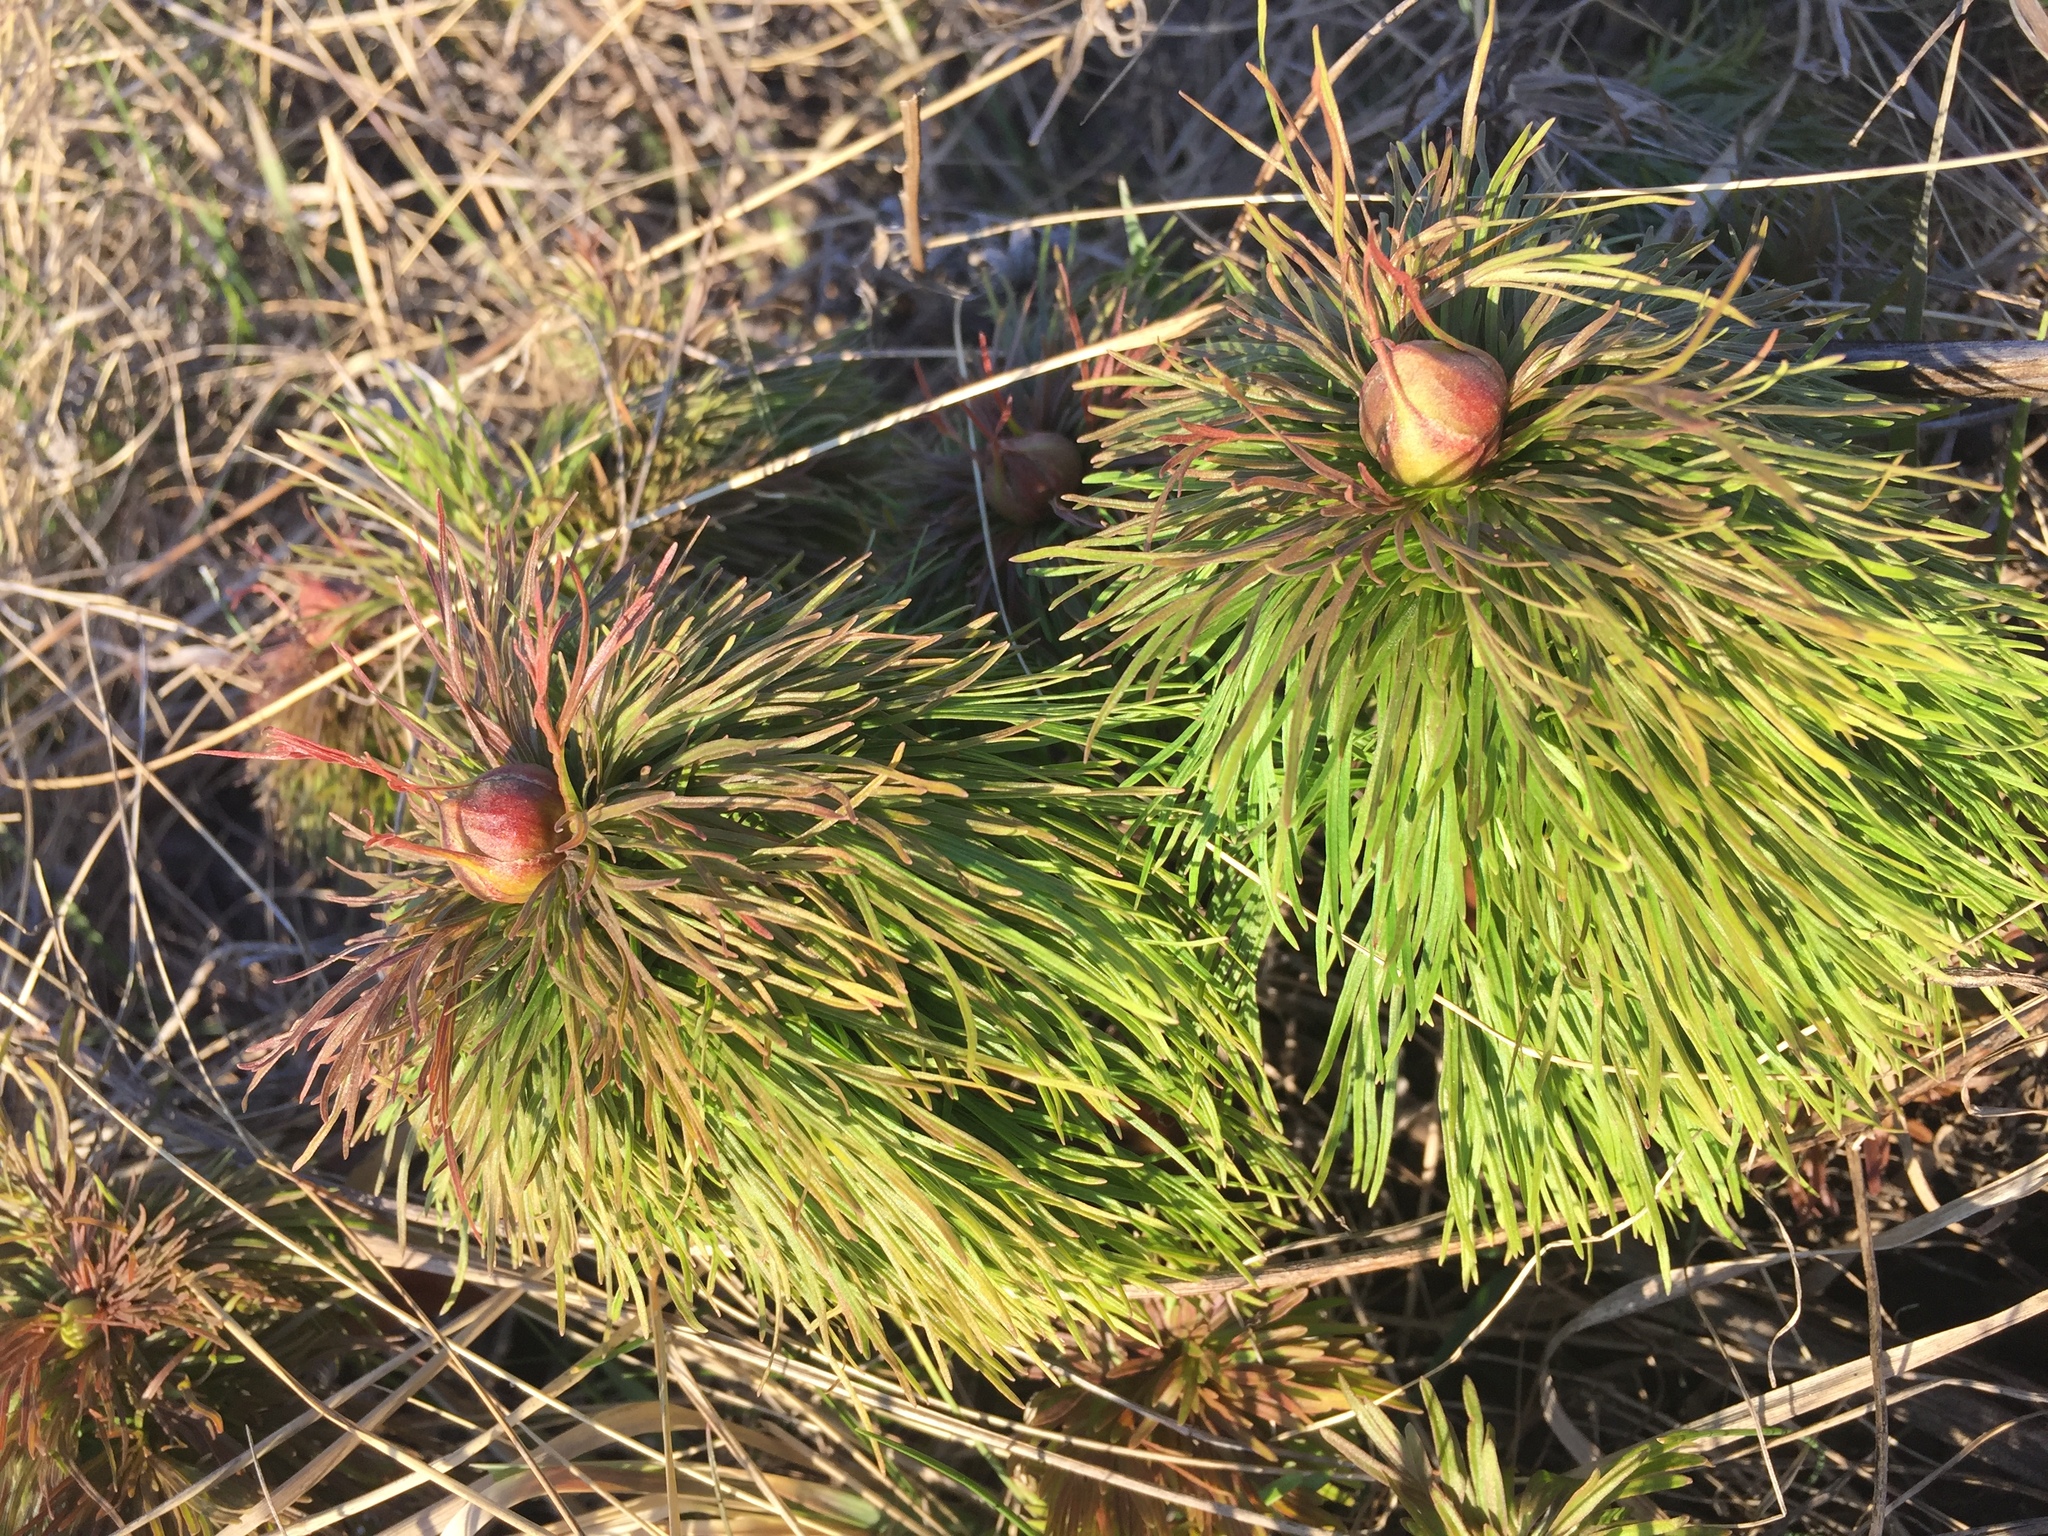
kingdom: Plantae
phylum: Tracheophyta
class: Magnoliopsida
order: Saxifragales
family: Paeoniaceae
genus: Paeonia
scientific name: Paeonia tenuifolia
